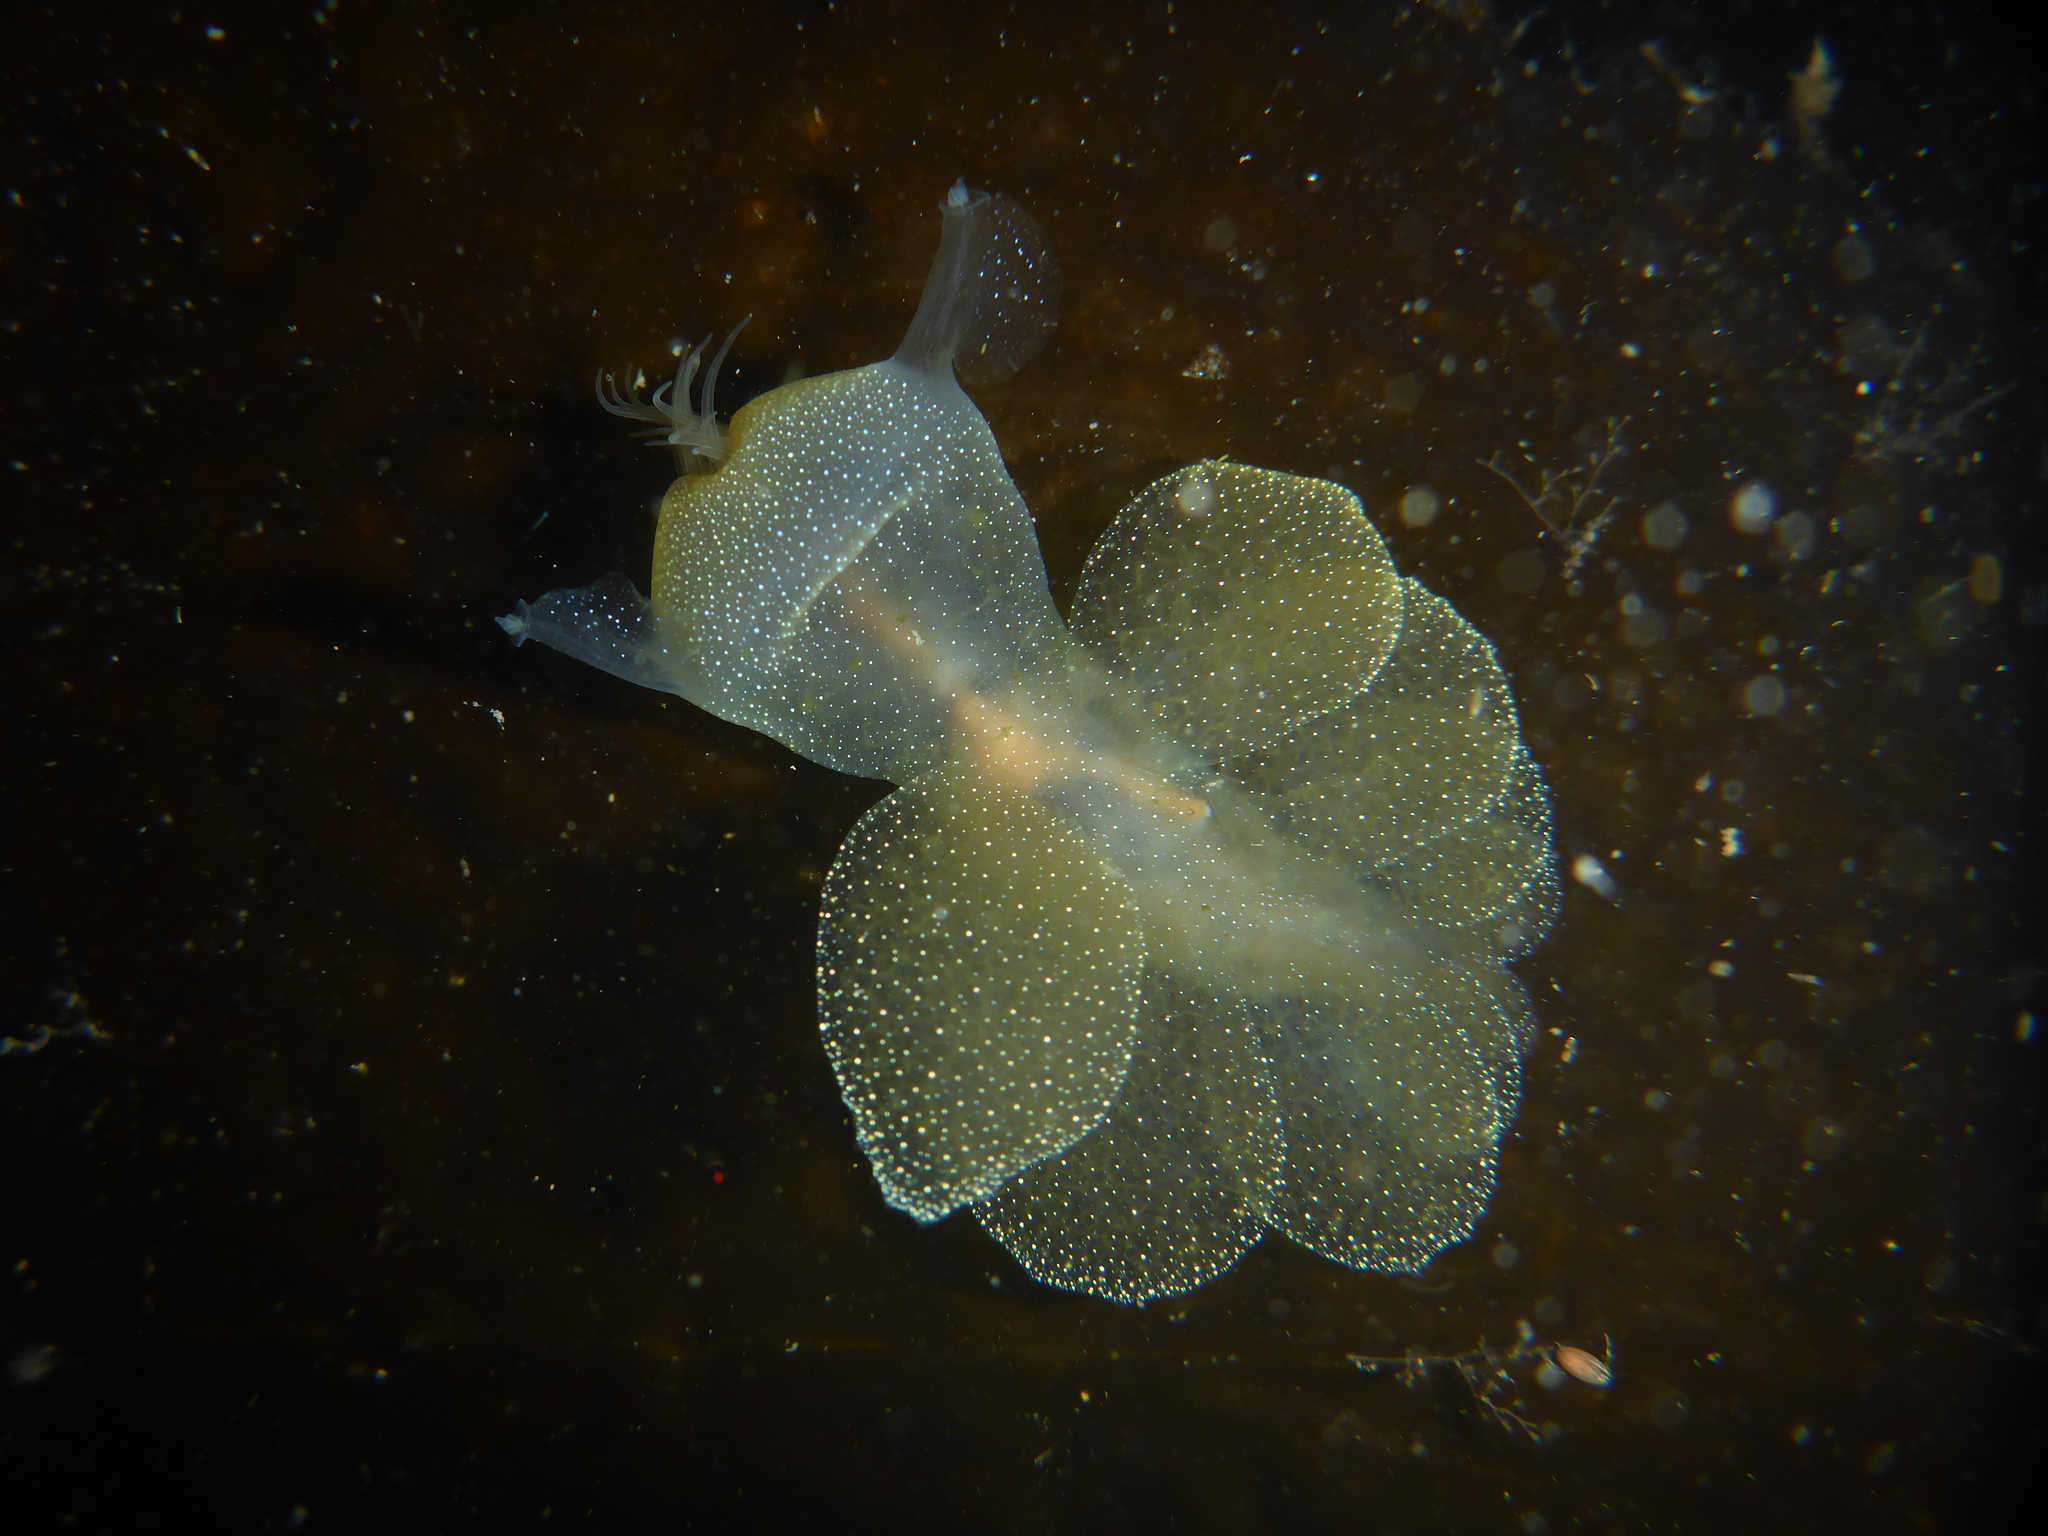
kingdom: Animalia
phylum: Mollusca
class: Gastropoda
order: Nudibranchia
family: Tethydidae
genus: Melibe
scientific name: Melibe leonina
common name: Lion nudibranch
